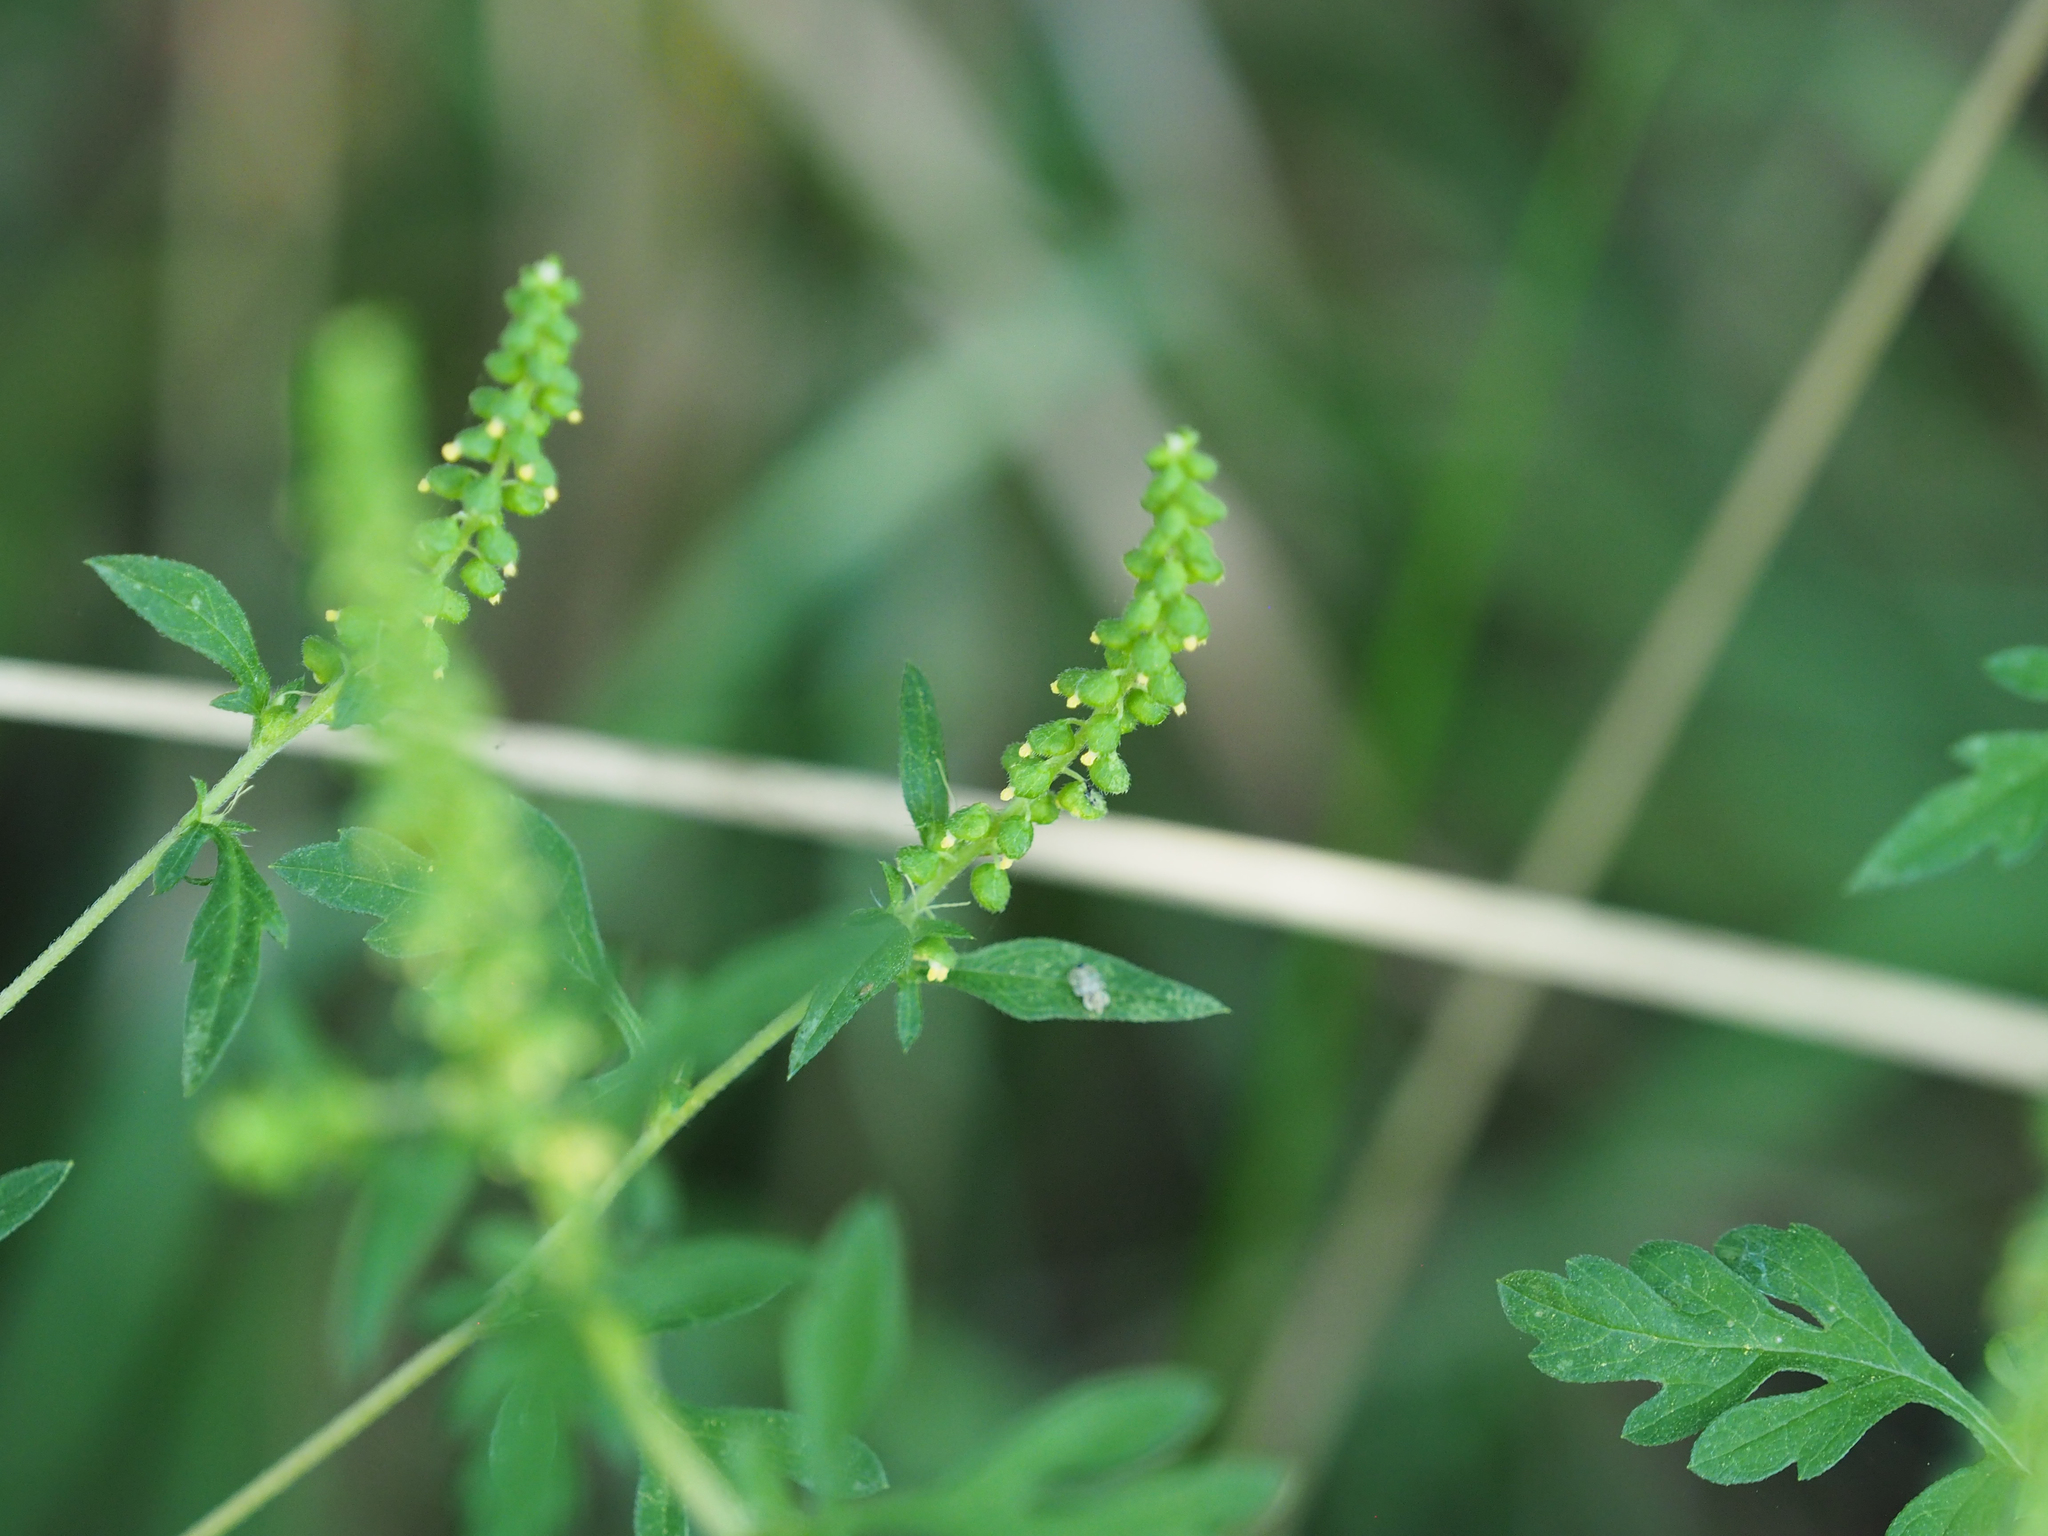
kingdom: Plantae
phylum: Tracheophyta
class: Magnoliopsida
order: Asterales
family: Asteraceae
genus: Ambrosia
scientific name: Ambrosia artemisiifolia
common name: Annual ragweed
